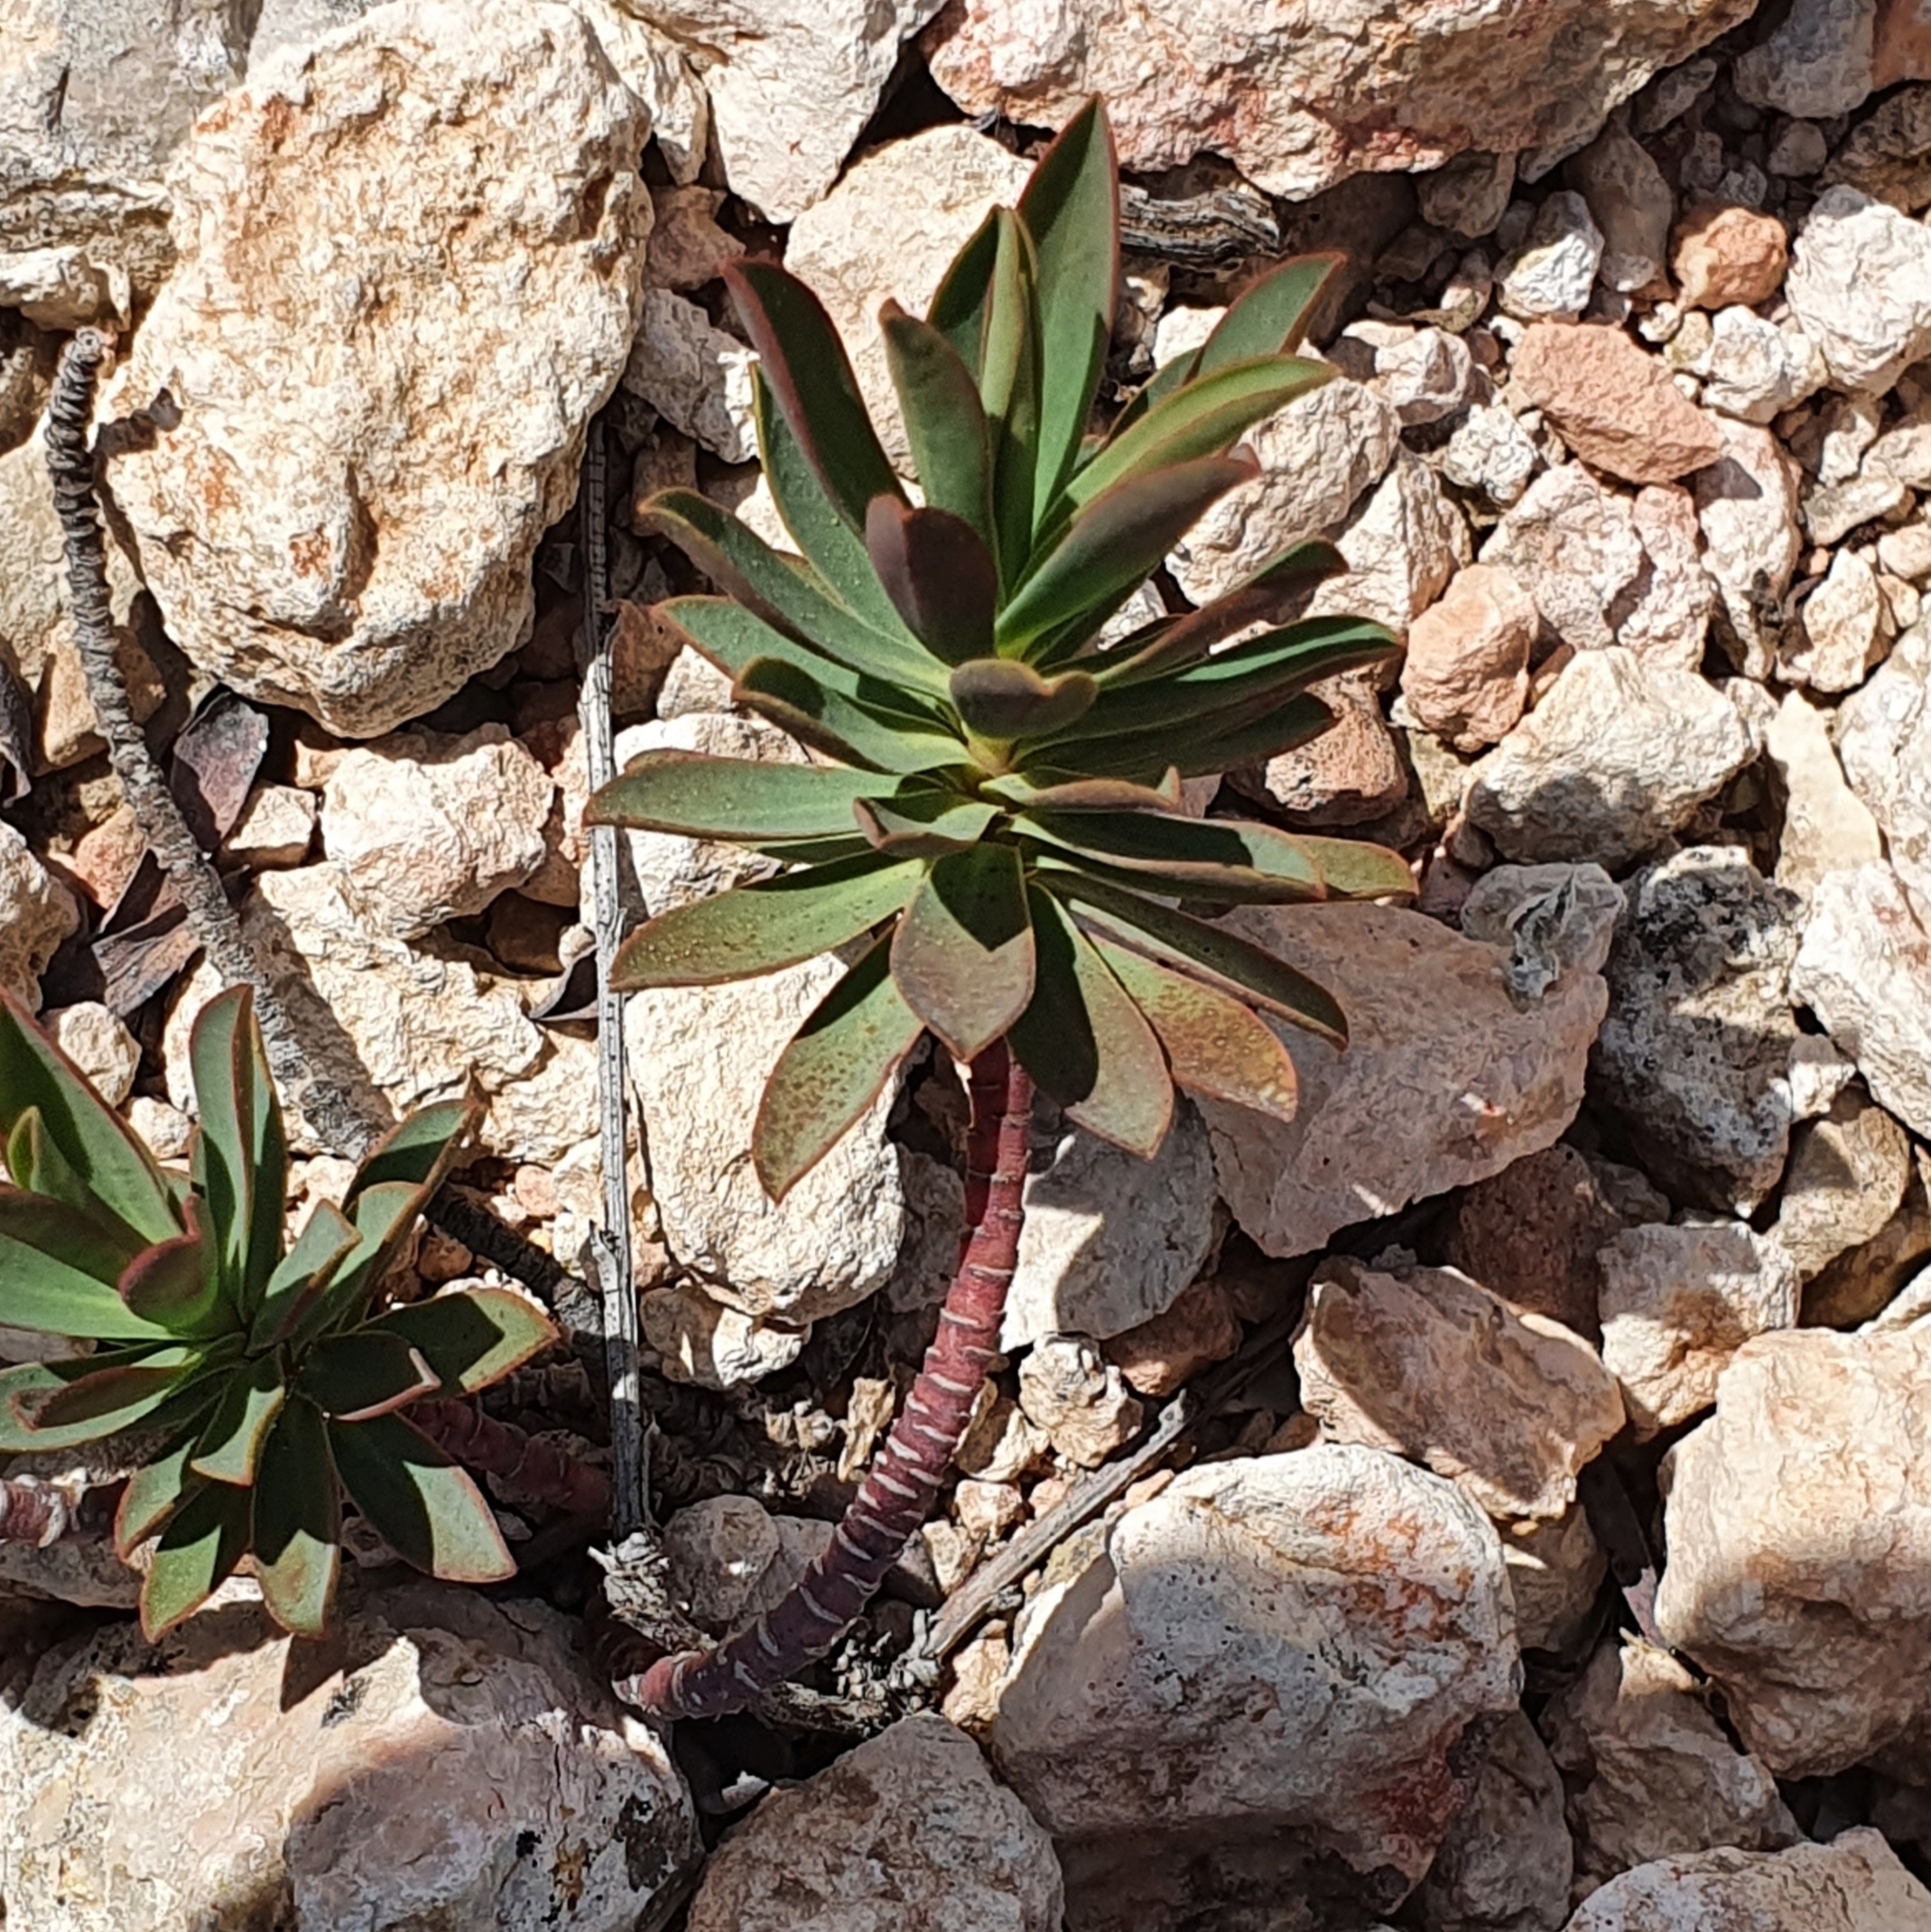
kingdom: Plantae
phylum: Tracheophyta
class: Magnoliopsida
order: Malpighiales
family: Euphorbiaceae
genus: Euphorbia
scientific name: Euphorbia nicaeensis
